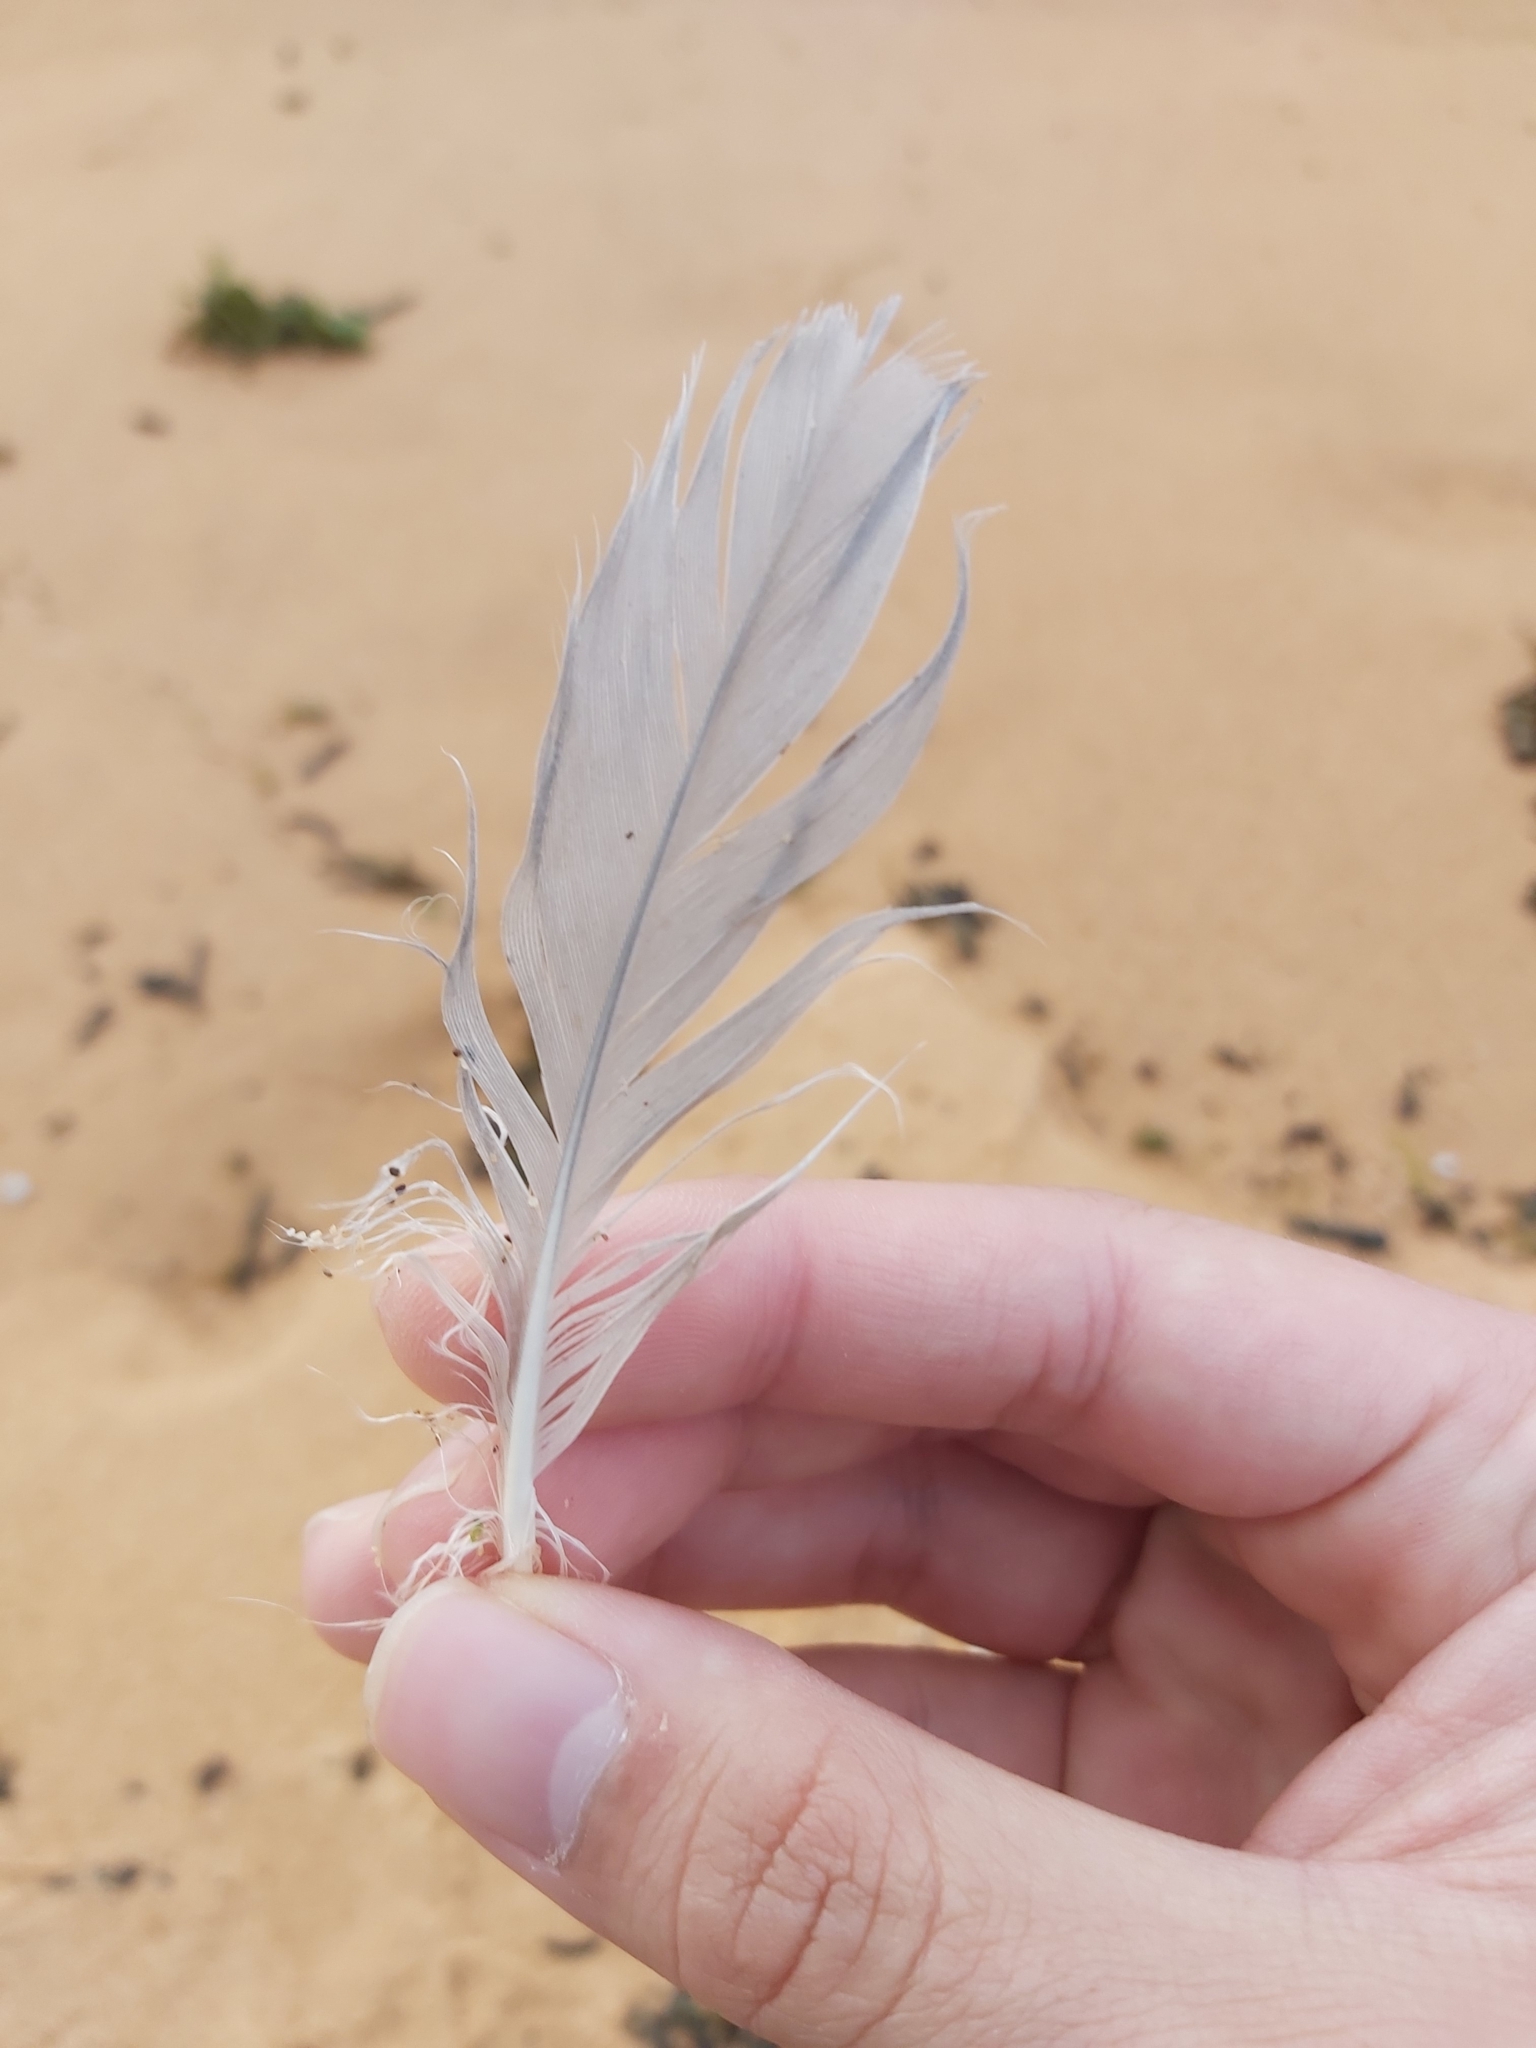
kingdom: Animalia
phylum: Chordata
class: Aves
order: Charadriiformes
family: Laridae
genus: Chroicocephalus
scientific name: Chroicocephalus novaehollandiae
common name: Silver gull
